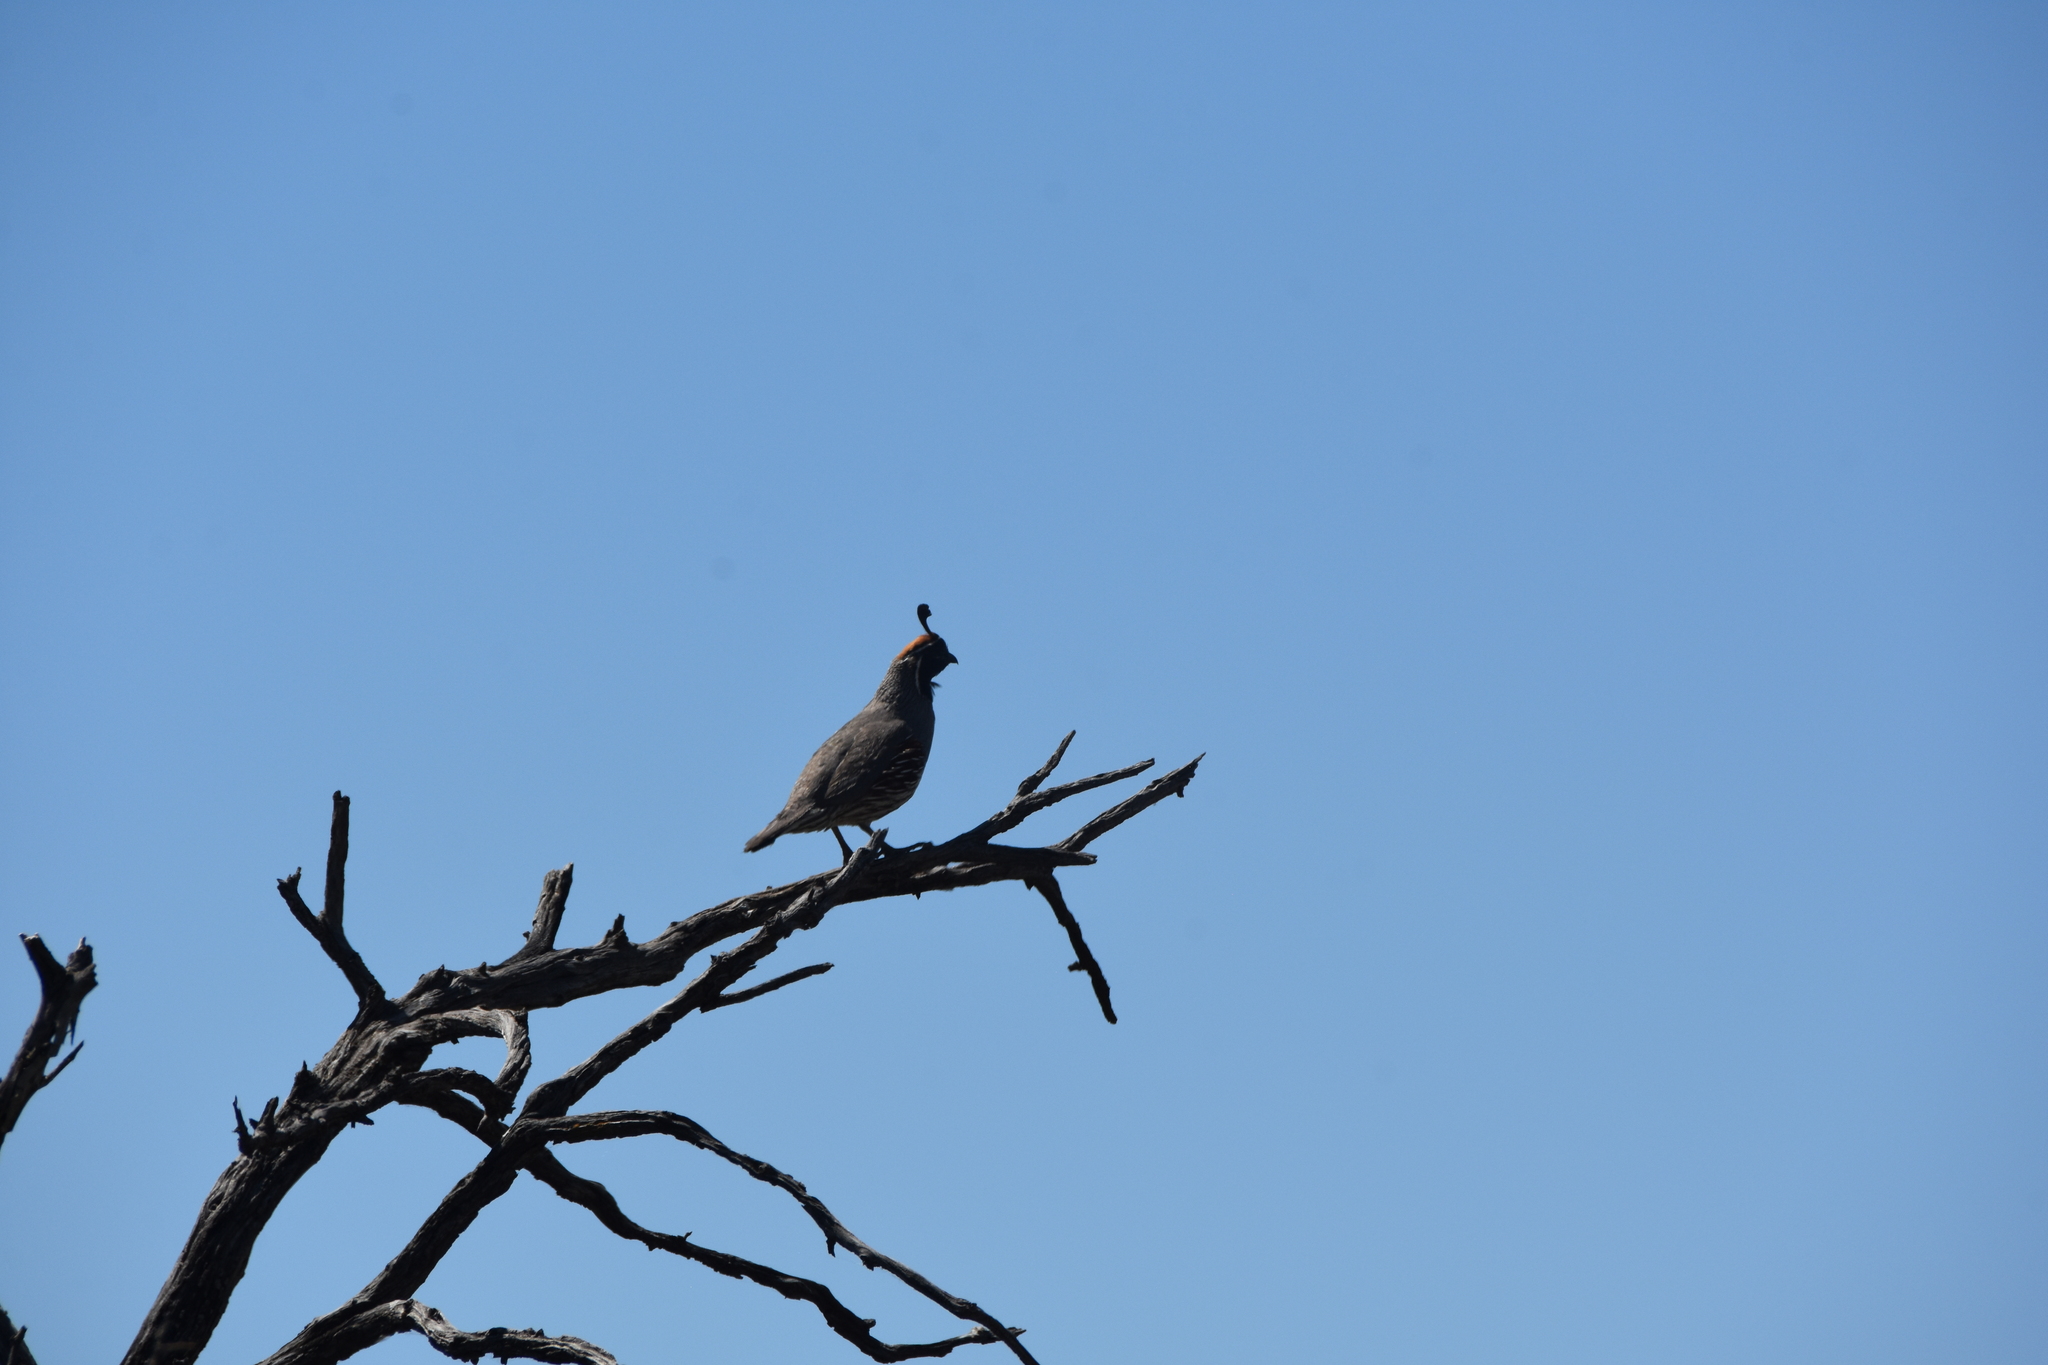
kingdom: Animalia
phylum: Chordata
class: Aves
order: Galliformes
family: Odontophoridae
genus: Callipepla
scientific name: Callipepla gambelii
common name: Gambel's quail
